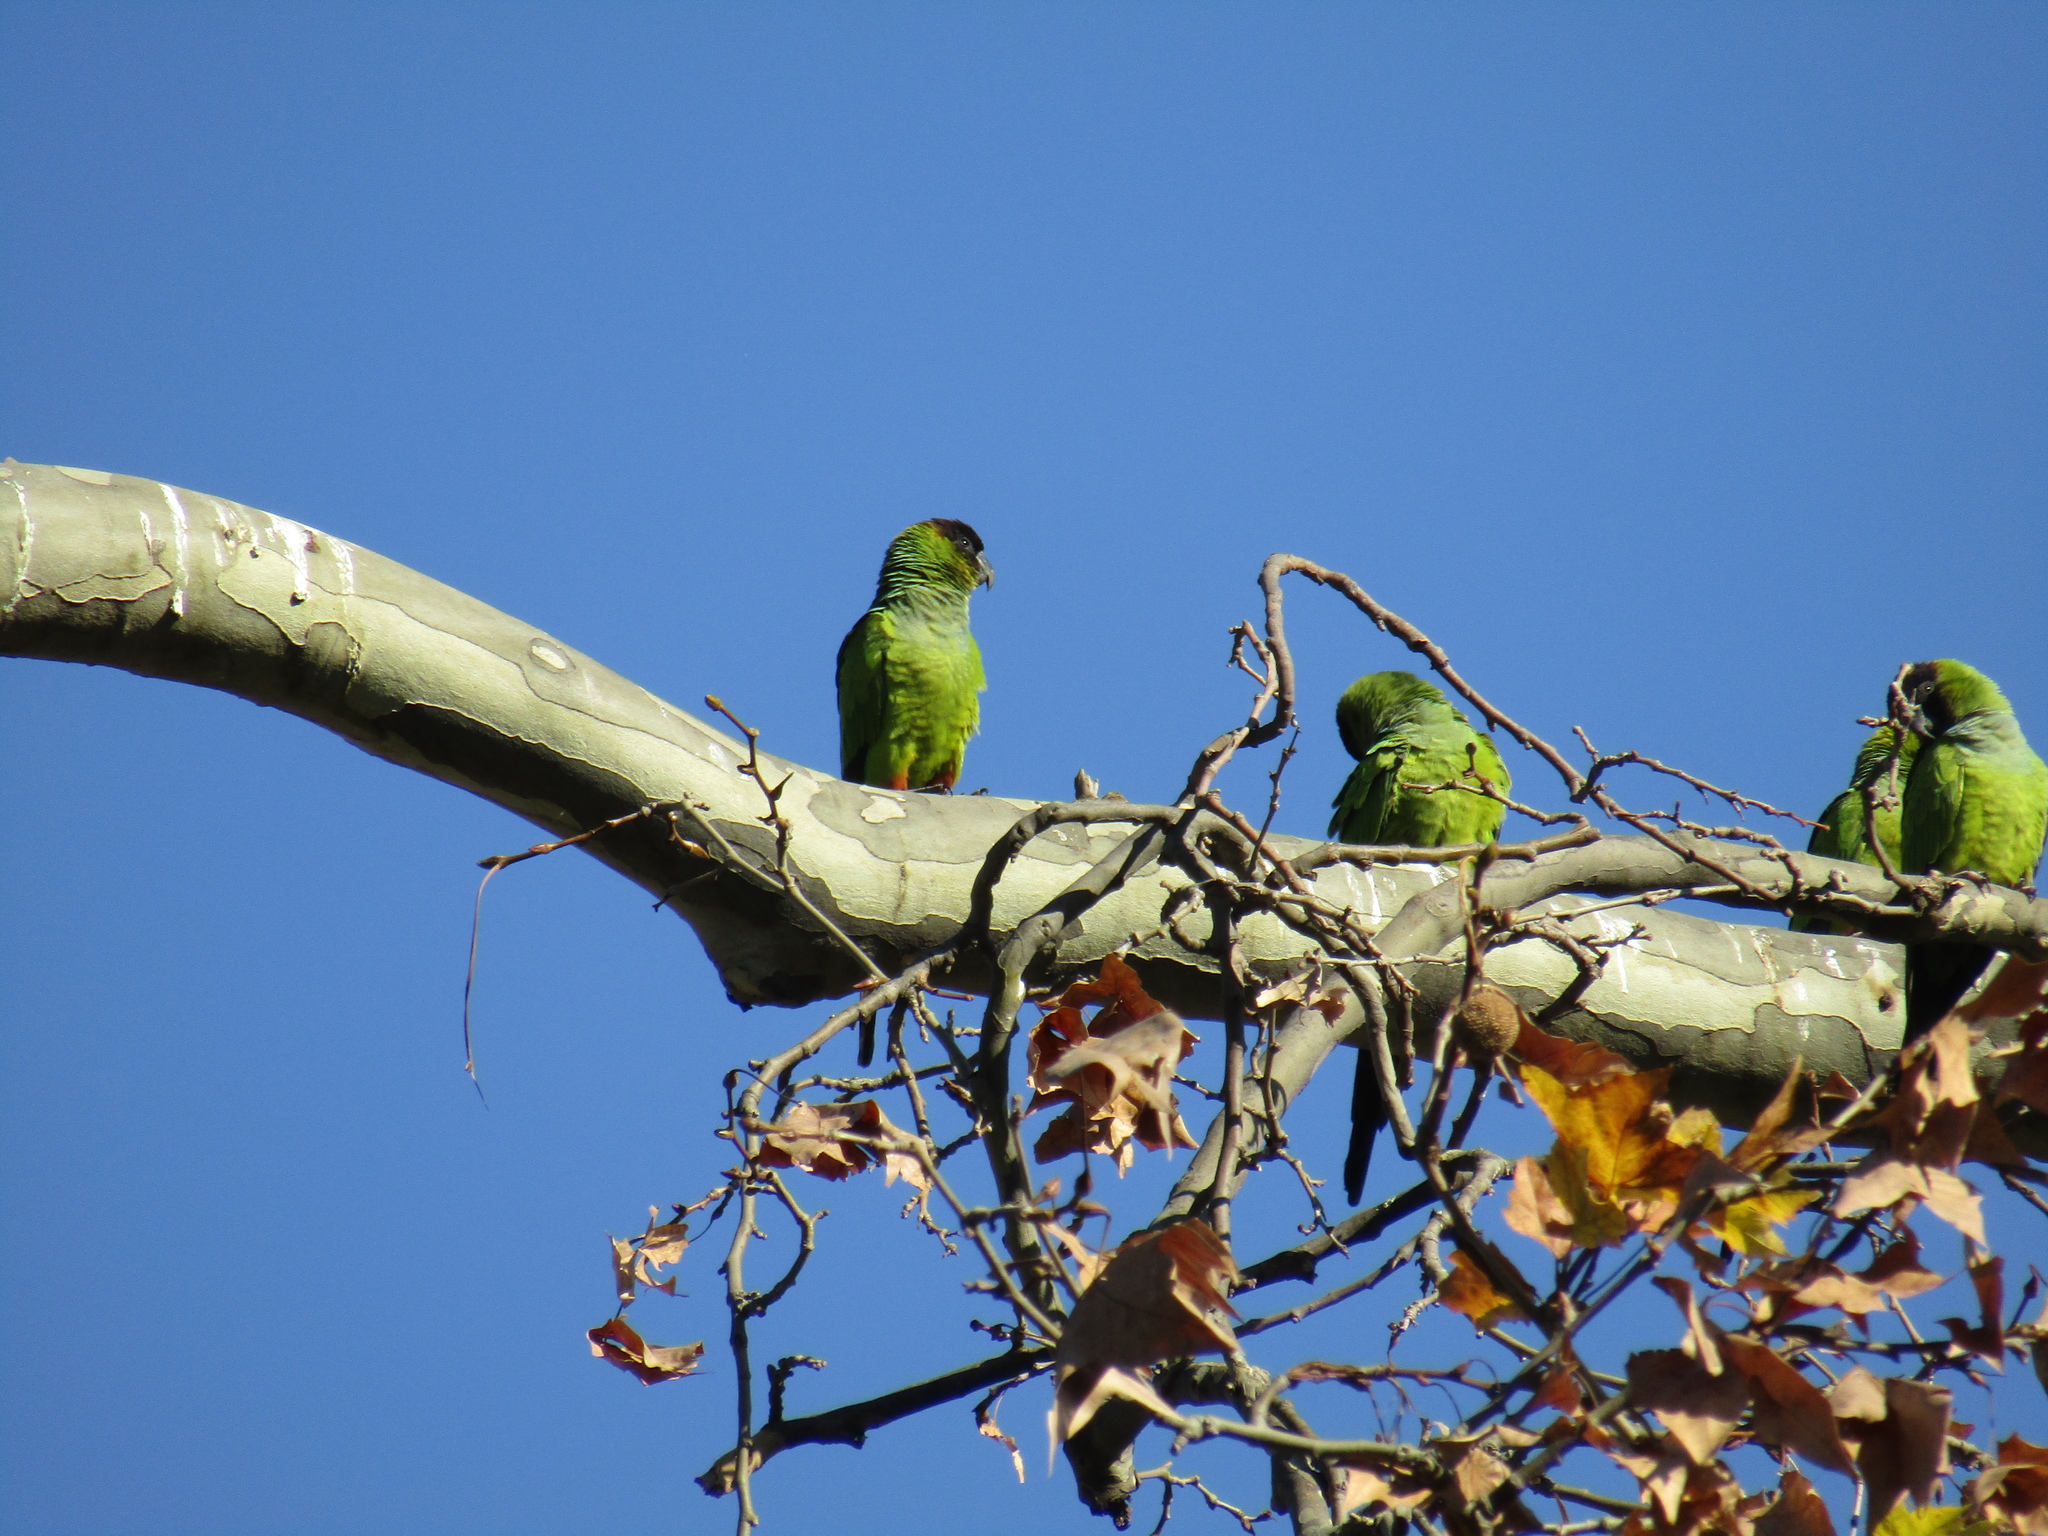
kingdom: Animalia
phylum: Chordata
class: Aves
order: Psittaciformes
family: Psittacidae
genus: Nandayus
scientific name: Nandayus nenday
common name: Nanday parakeet
